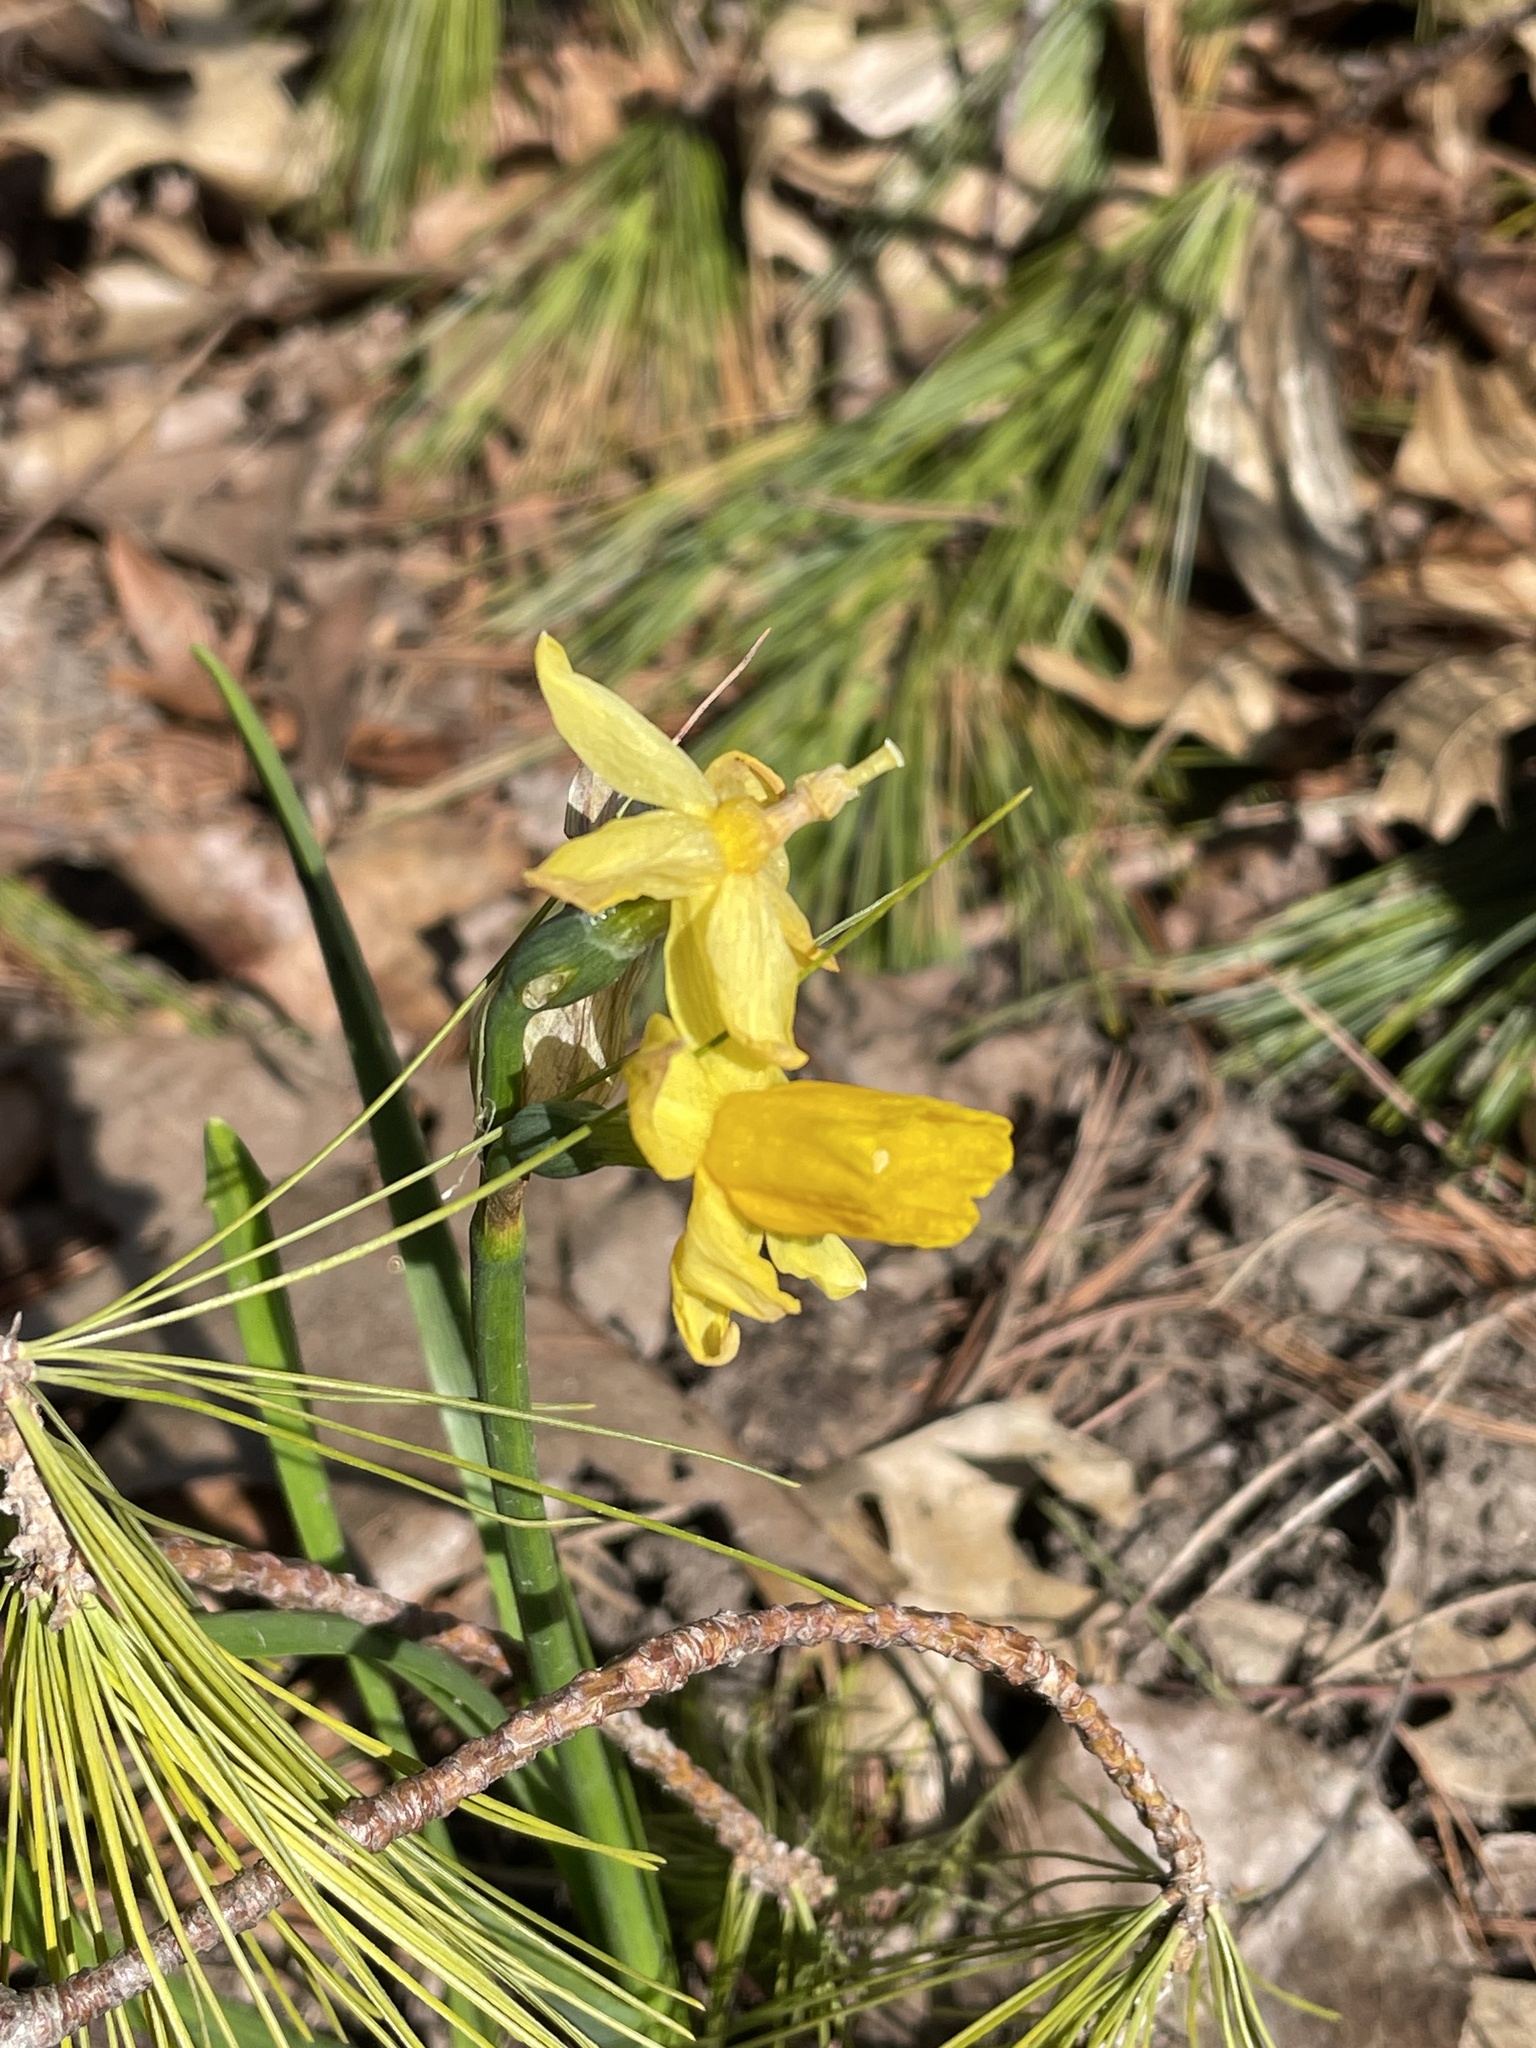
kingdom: Plantae
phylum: Tracheophyta
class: Liliopsida
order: Asparagales
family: Amaryllidaceae
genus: Narcissus
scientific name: Narcissus pseudonarcissus
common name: Daffodil
